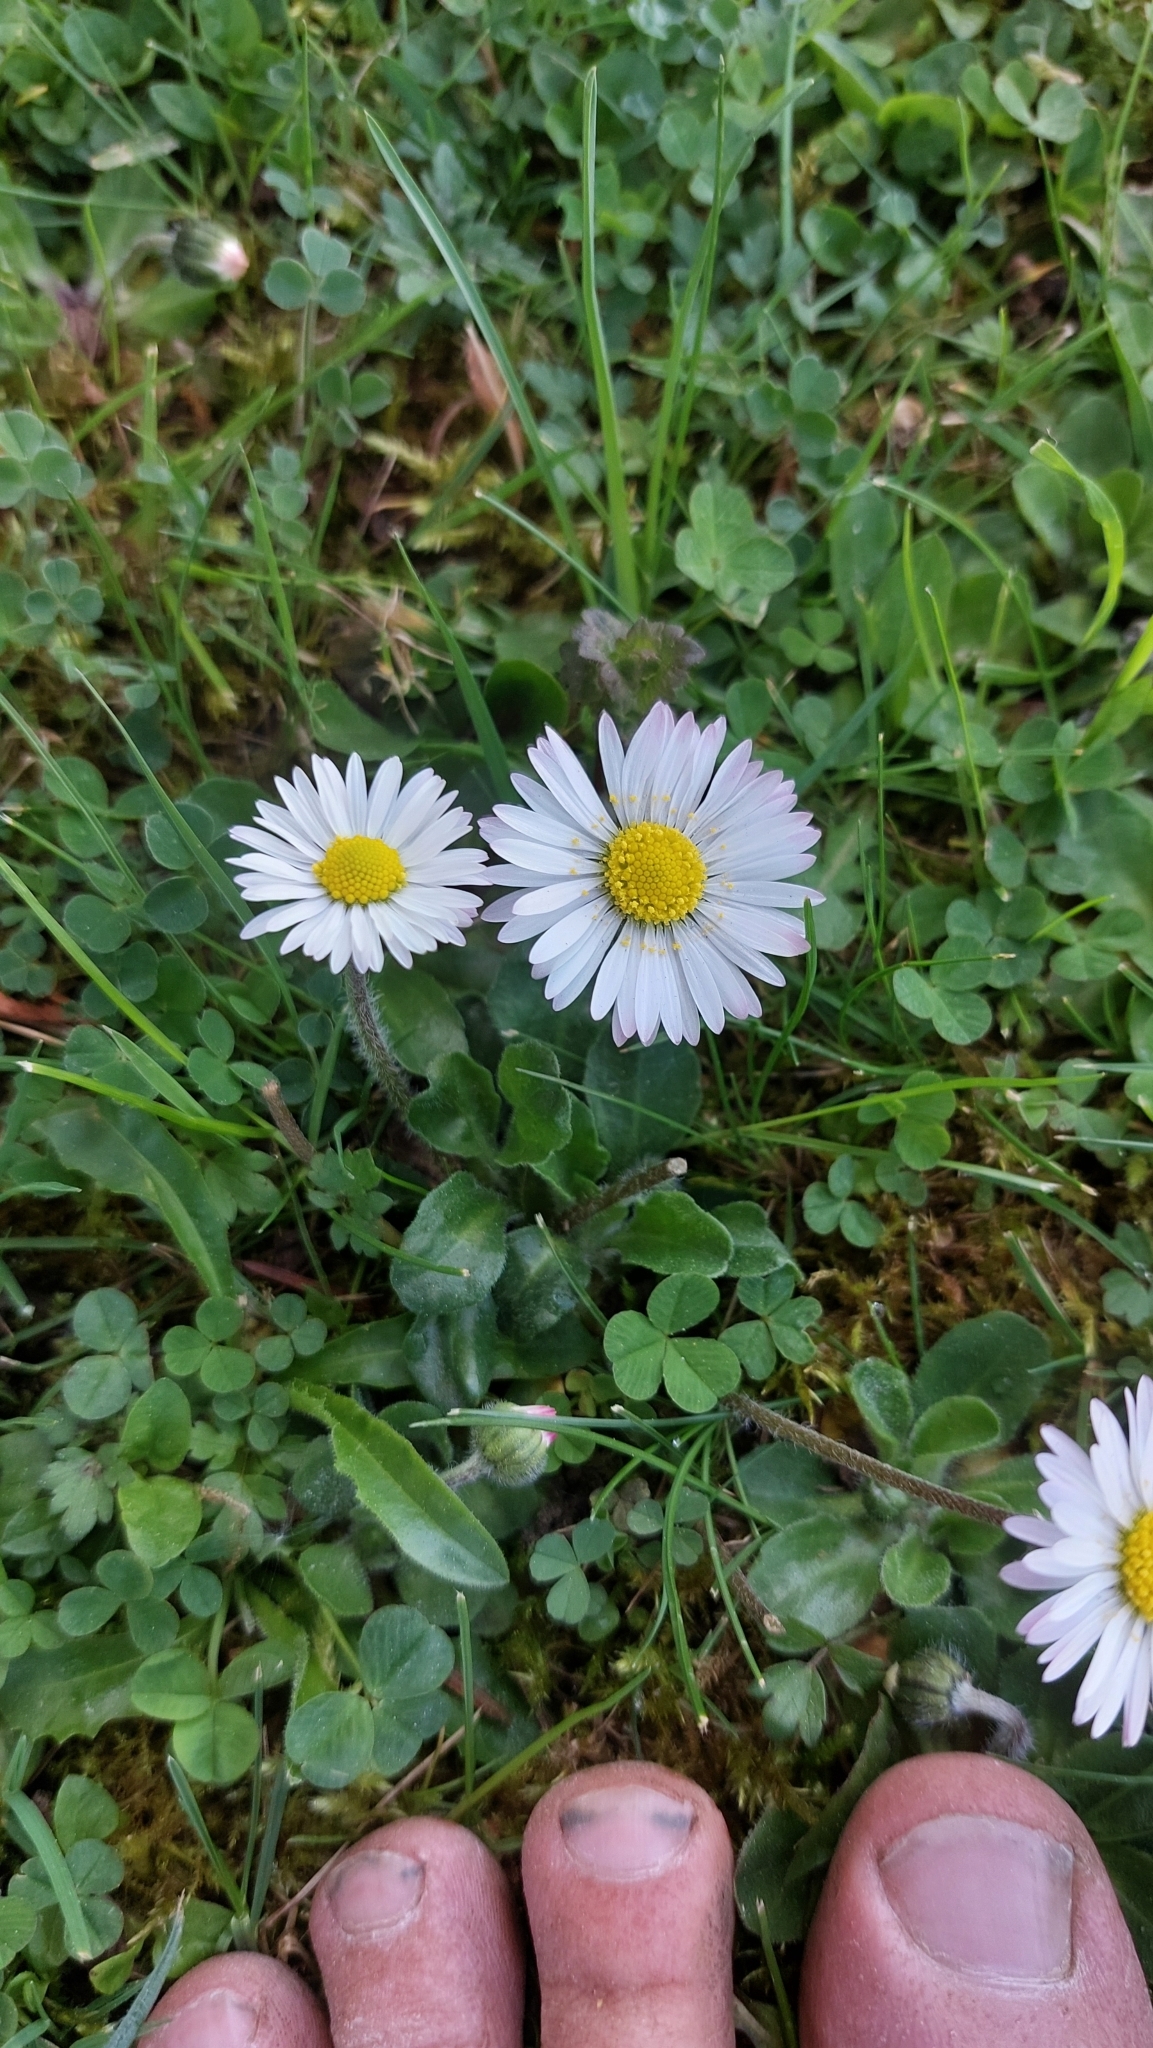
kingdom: Plantae
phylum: Tracheophyta
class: Magnoliopsida
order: Asterales
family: Asteraceae
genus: Bellis
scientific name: Bellis perennis
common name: Lawndaisy
